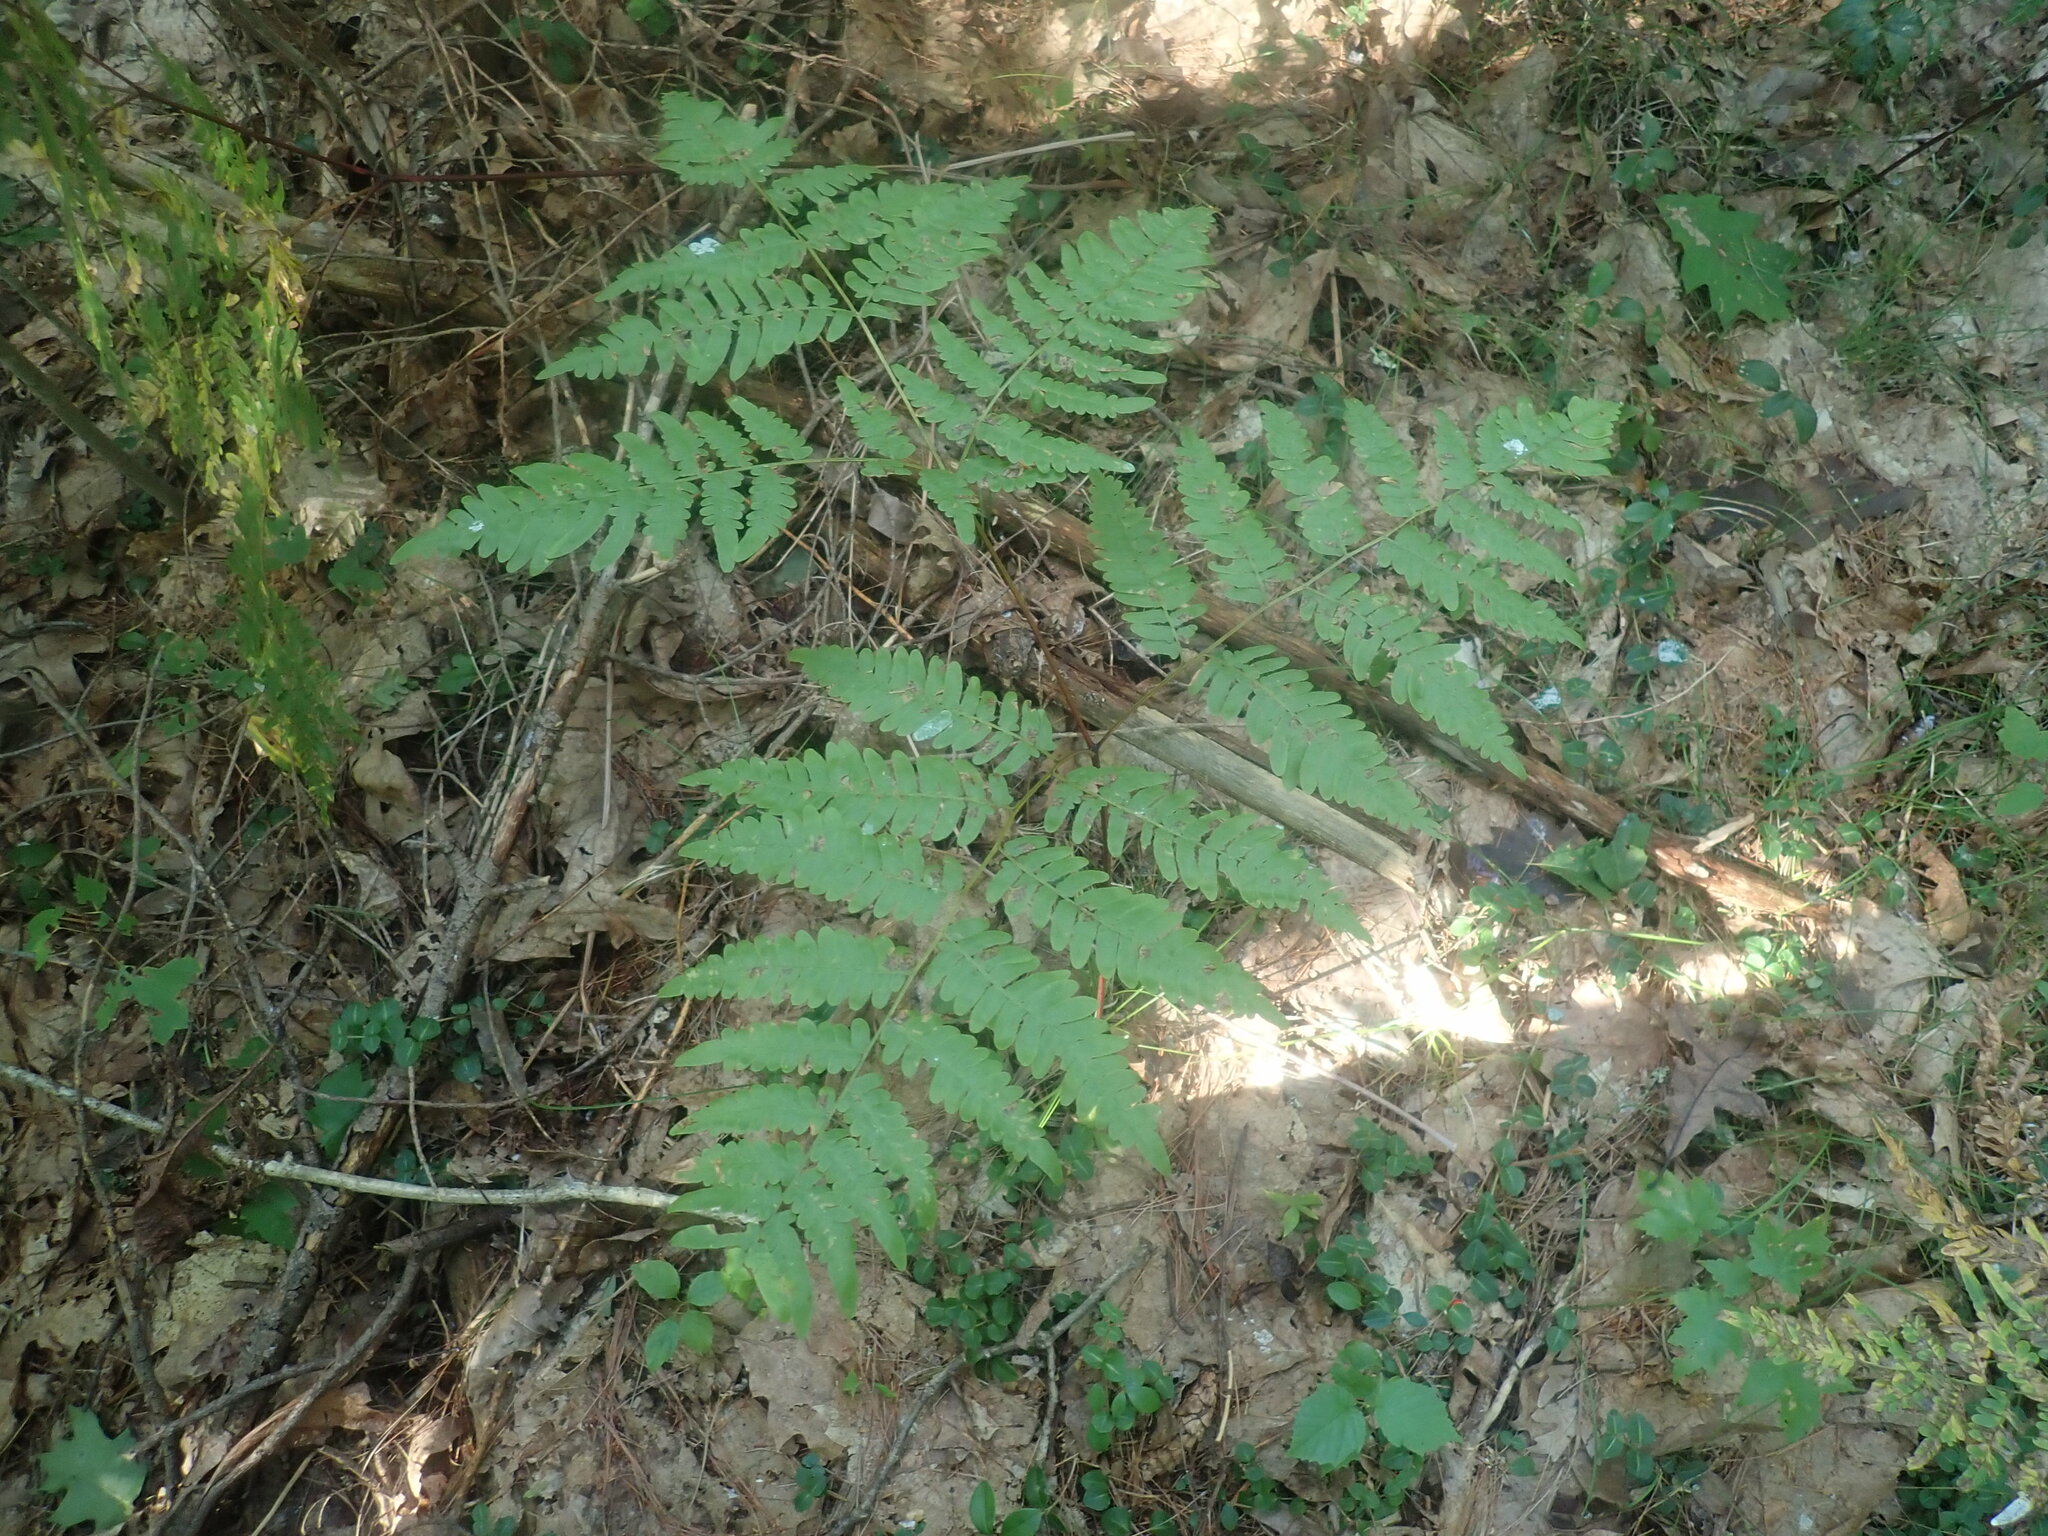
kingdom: Plantae
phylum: Tracheophyta
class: Polypodiopsida
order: Polypodiales
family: Dennstaedtiaceae
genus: Pteridium
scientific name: Pteridium aquilinum
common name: Bracken
